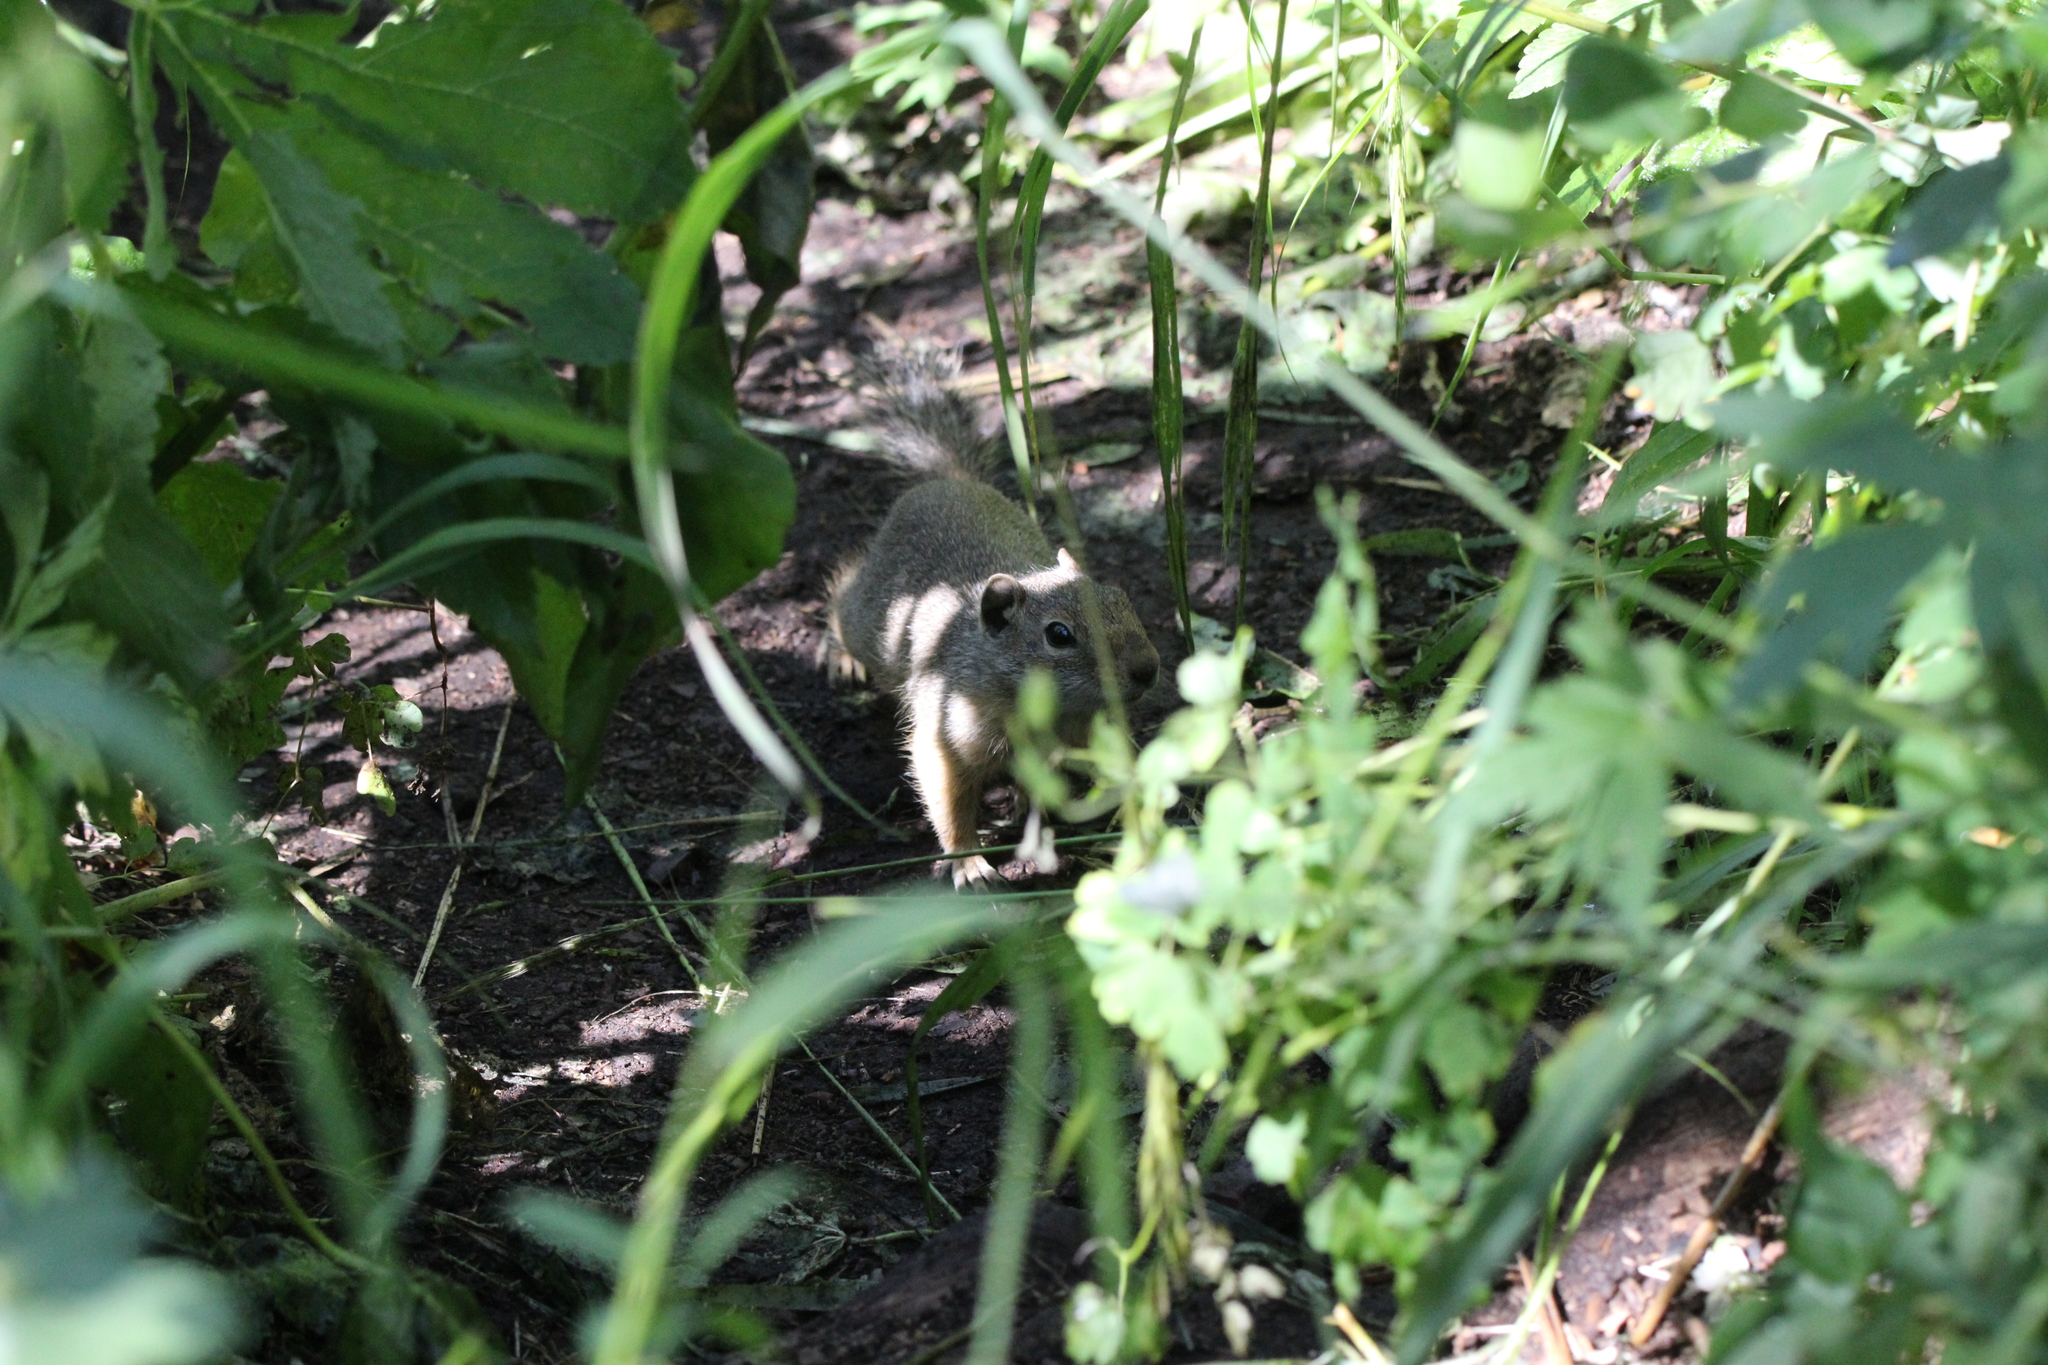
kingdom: Animalia
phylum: Chordata
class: Mammalia
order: Rodentia
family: Sciuridae
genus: Otospermophilus
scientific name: Otospermophilus variegatus
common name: Rock squirrel
